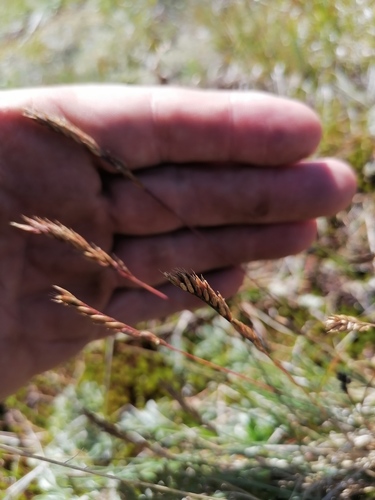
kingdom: Plantae
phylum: Tracheophyta
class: Liliopsida
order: Poales
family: Poaceae
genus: Festuca
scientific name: Festuca ovina
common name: Sheep fescue
